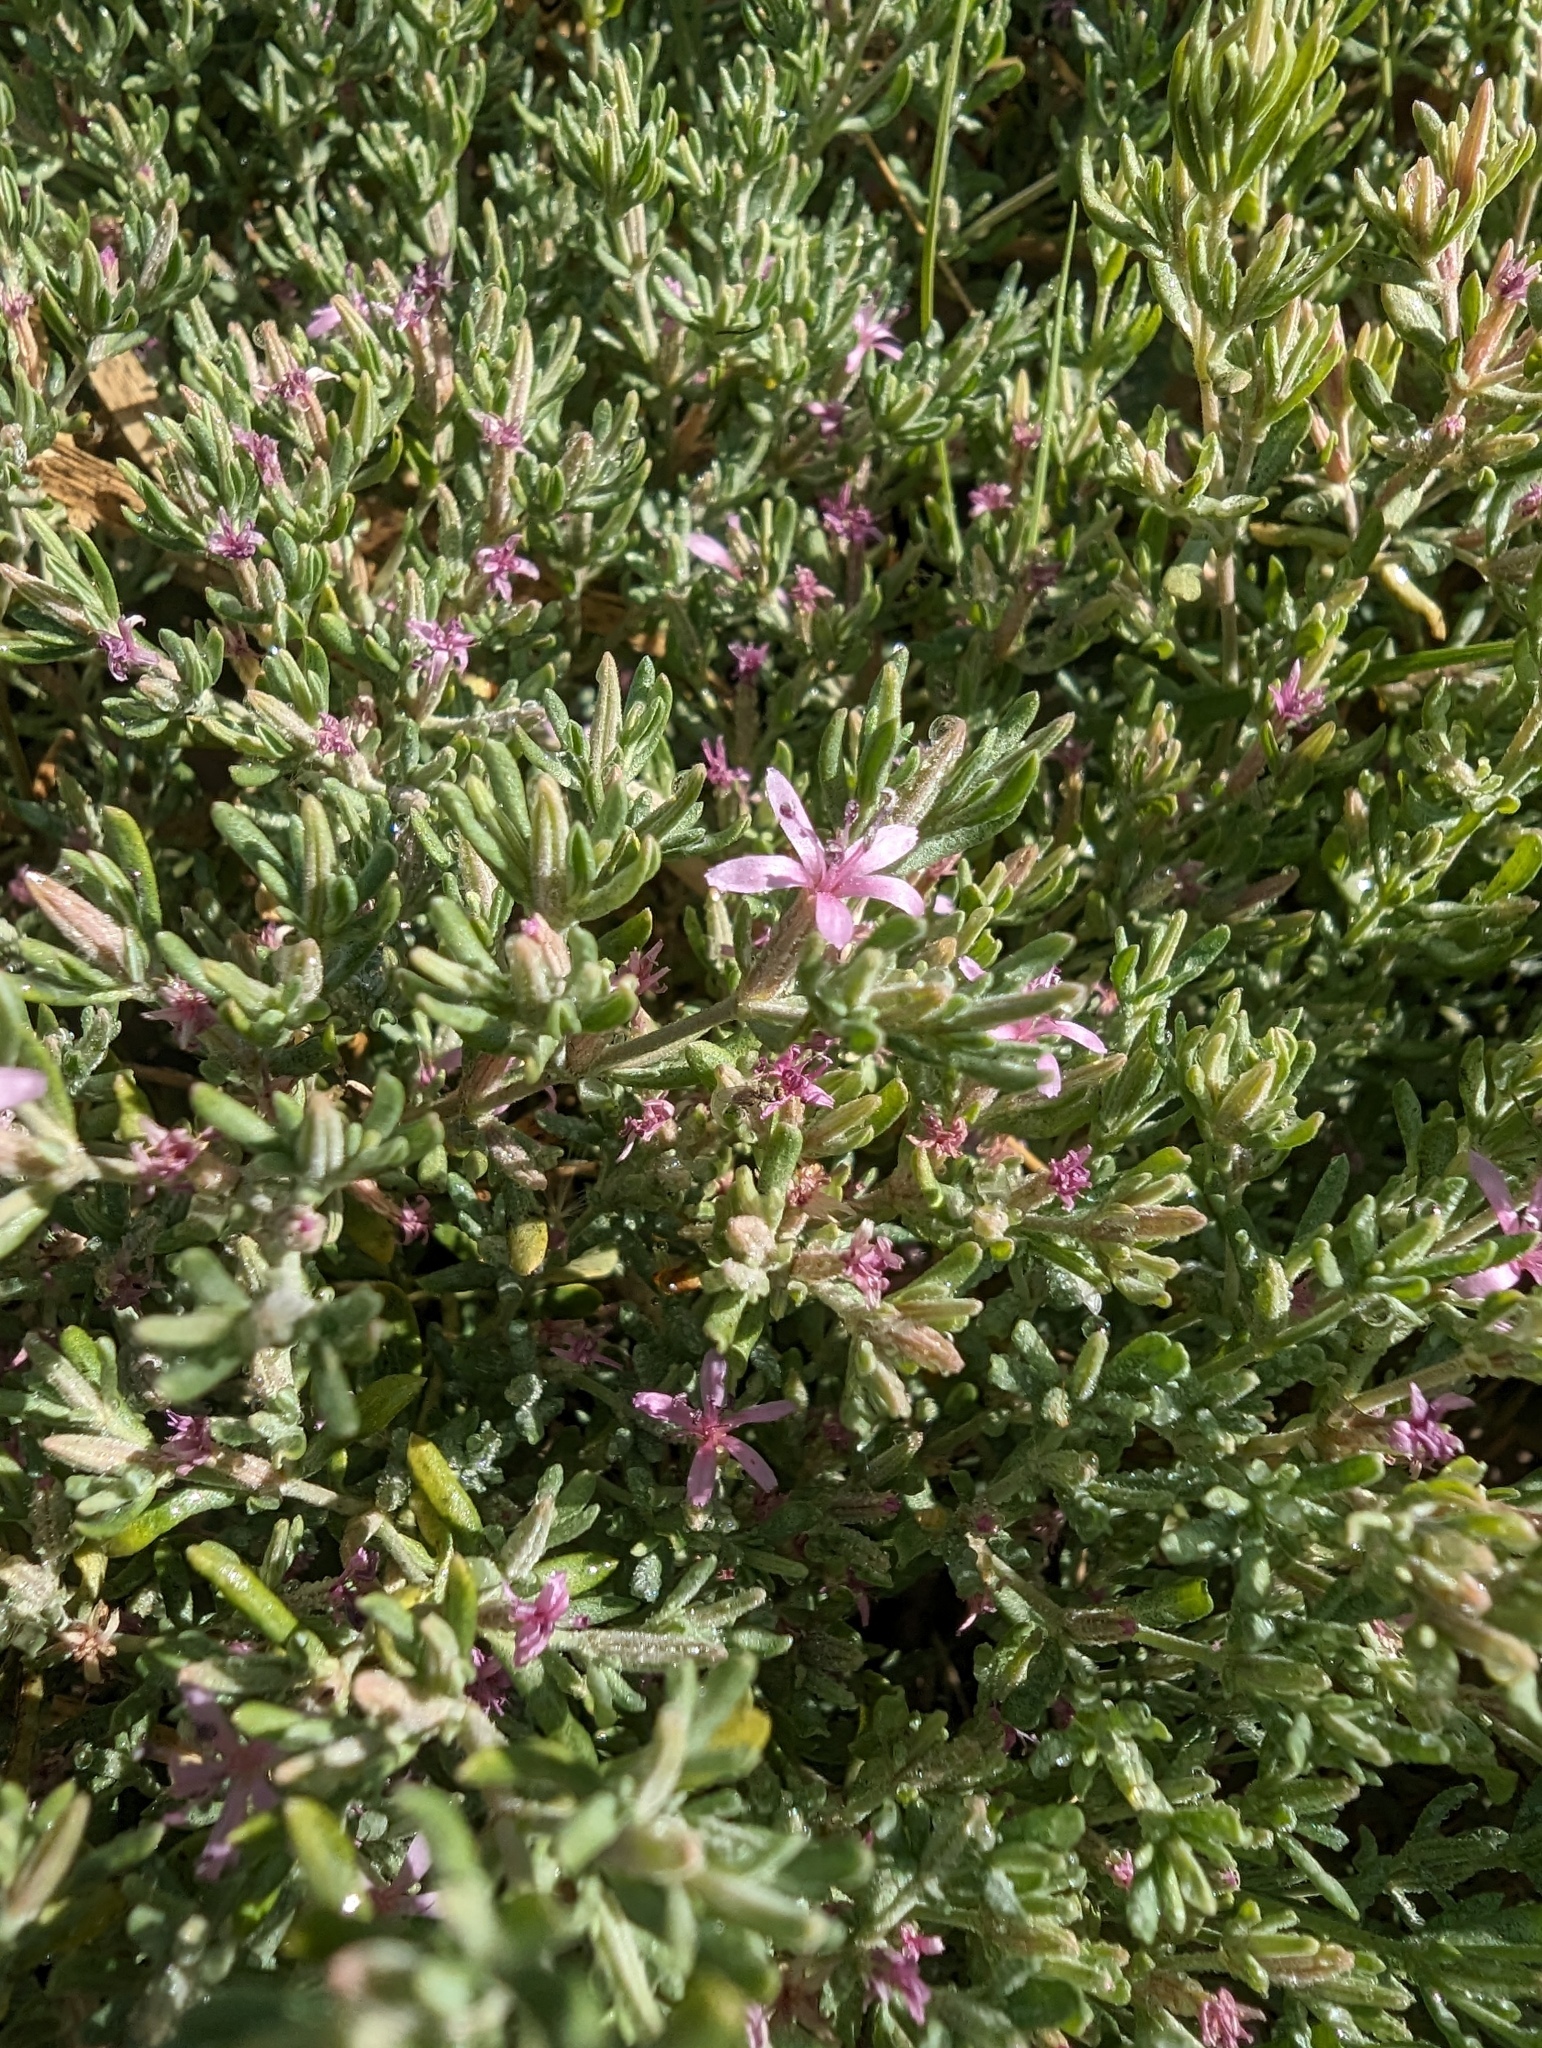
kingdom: Plantae
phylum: Tracheophyta
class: Magnoliopsida
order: Caryophyllales
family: Frankeniaceae
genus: Frankenia
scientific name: Frankenia salina
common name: Alkali seaheath
